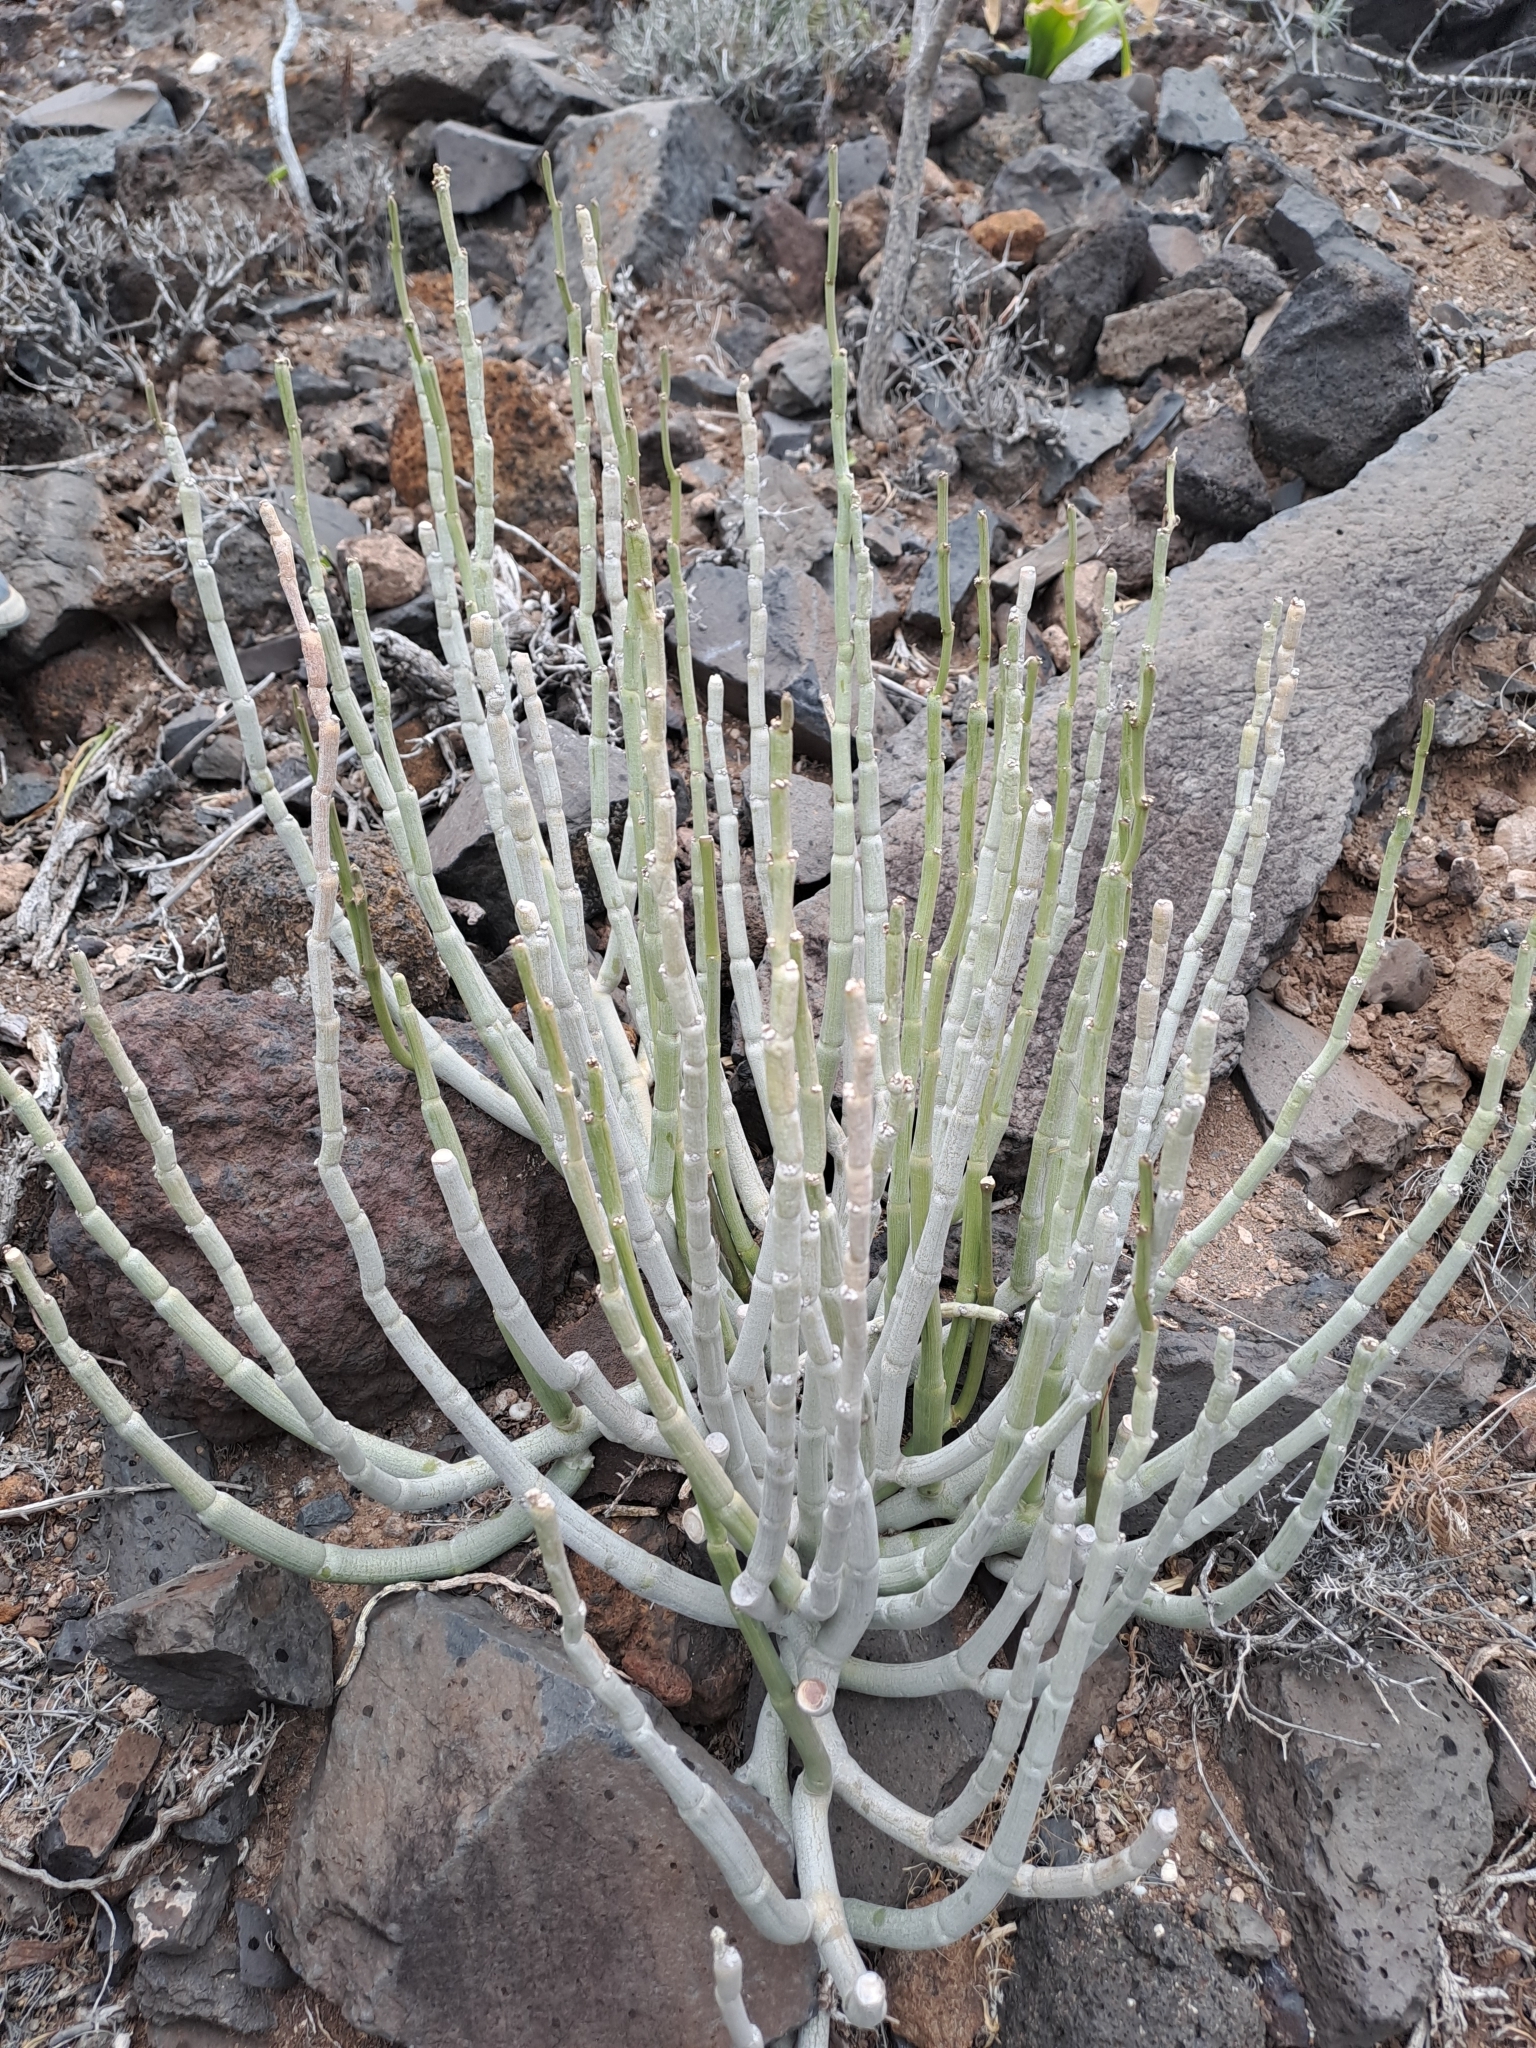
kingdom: Plantae
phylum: Tracheophyta
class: Magnoliopsida
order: Gentianales
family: Apocynaceae
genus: Ceropegia
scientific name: Ceropegia dichotoma
